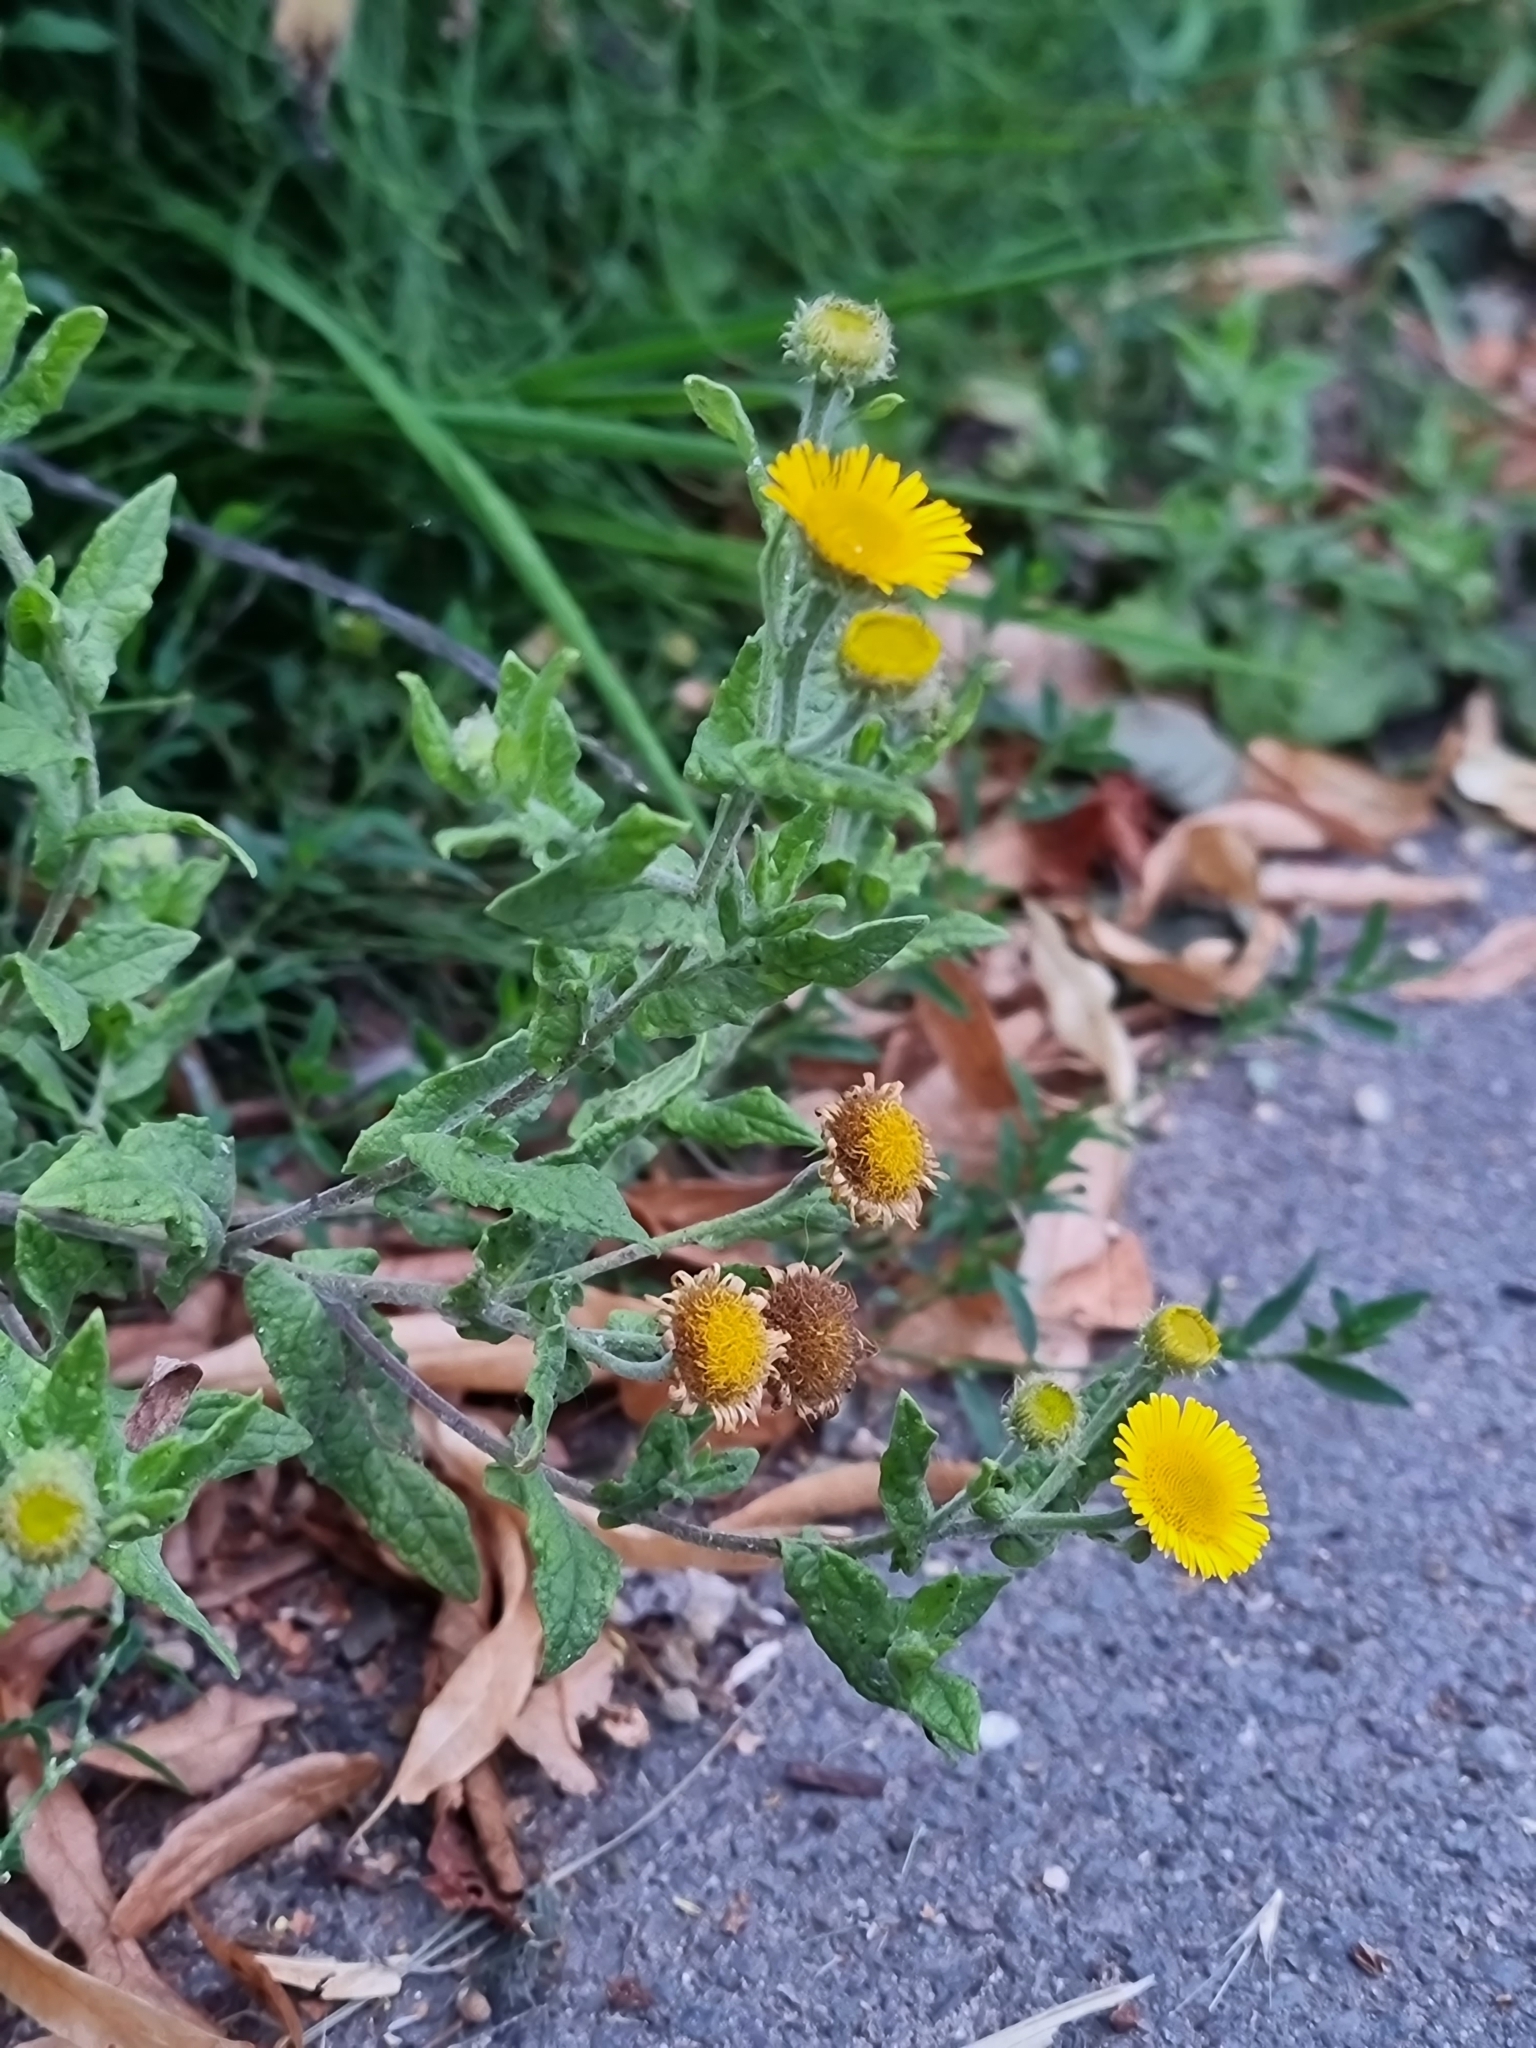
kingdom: Plantae
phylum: Tracheophyta
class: Magnoliopsida
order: Asterales
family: Asteraceae
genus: Pulicaria
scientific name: Pulicaria dysenterica
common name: Common fleabane
